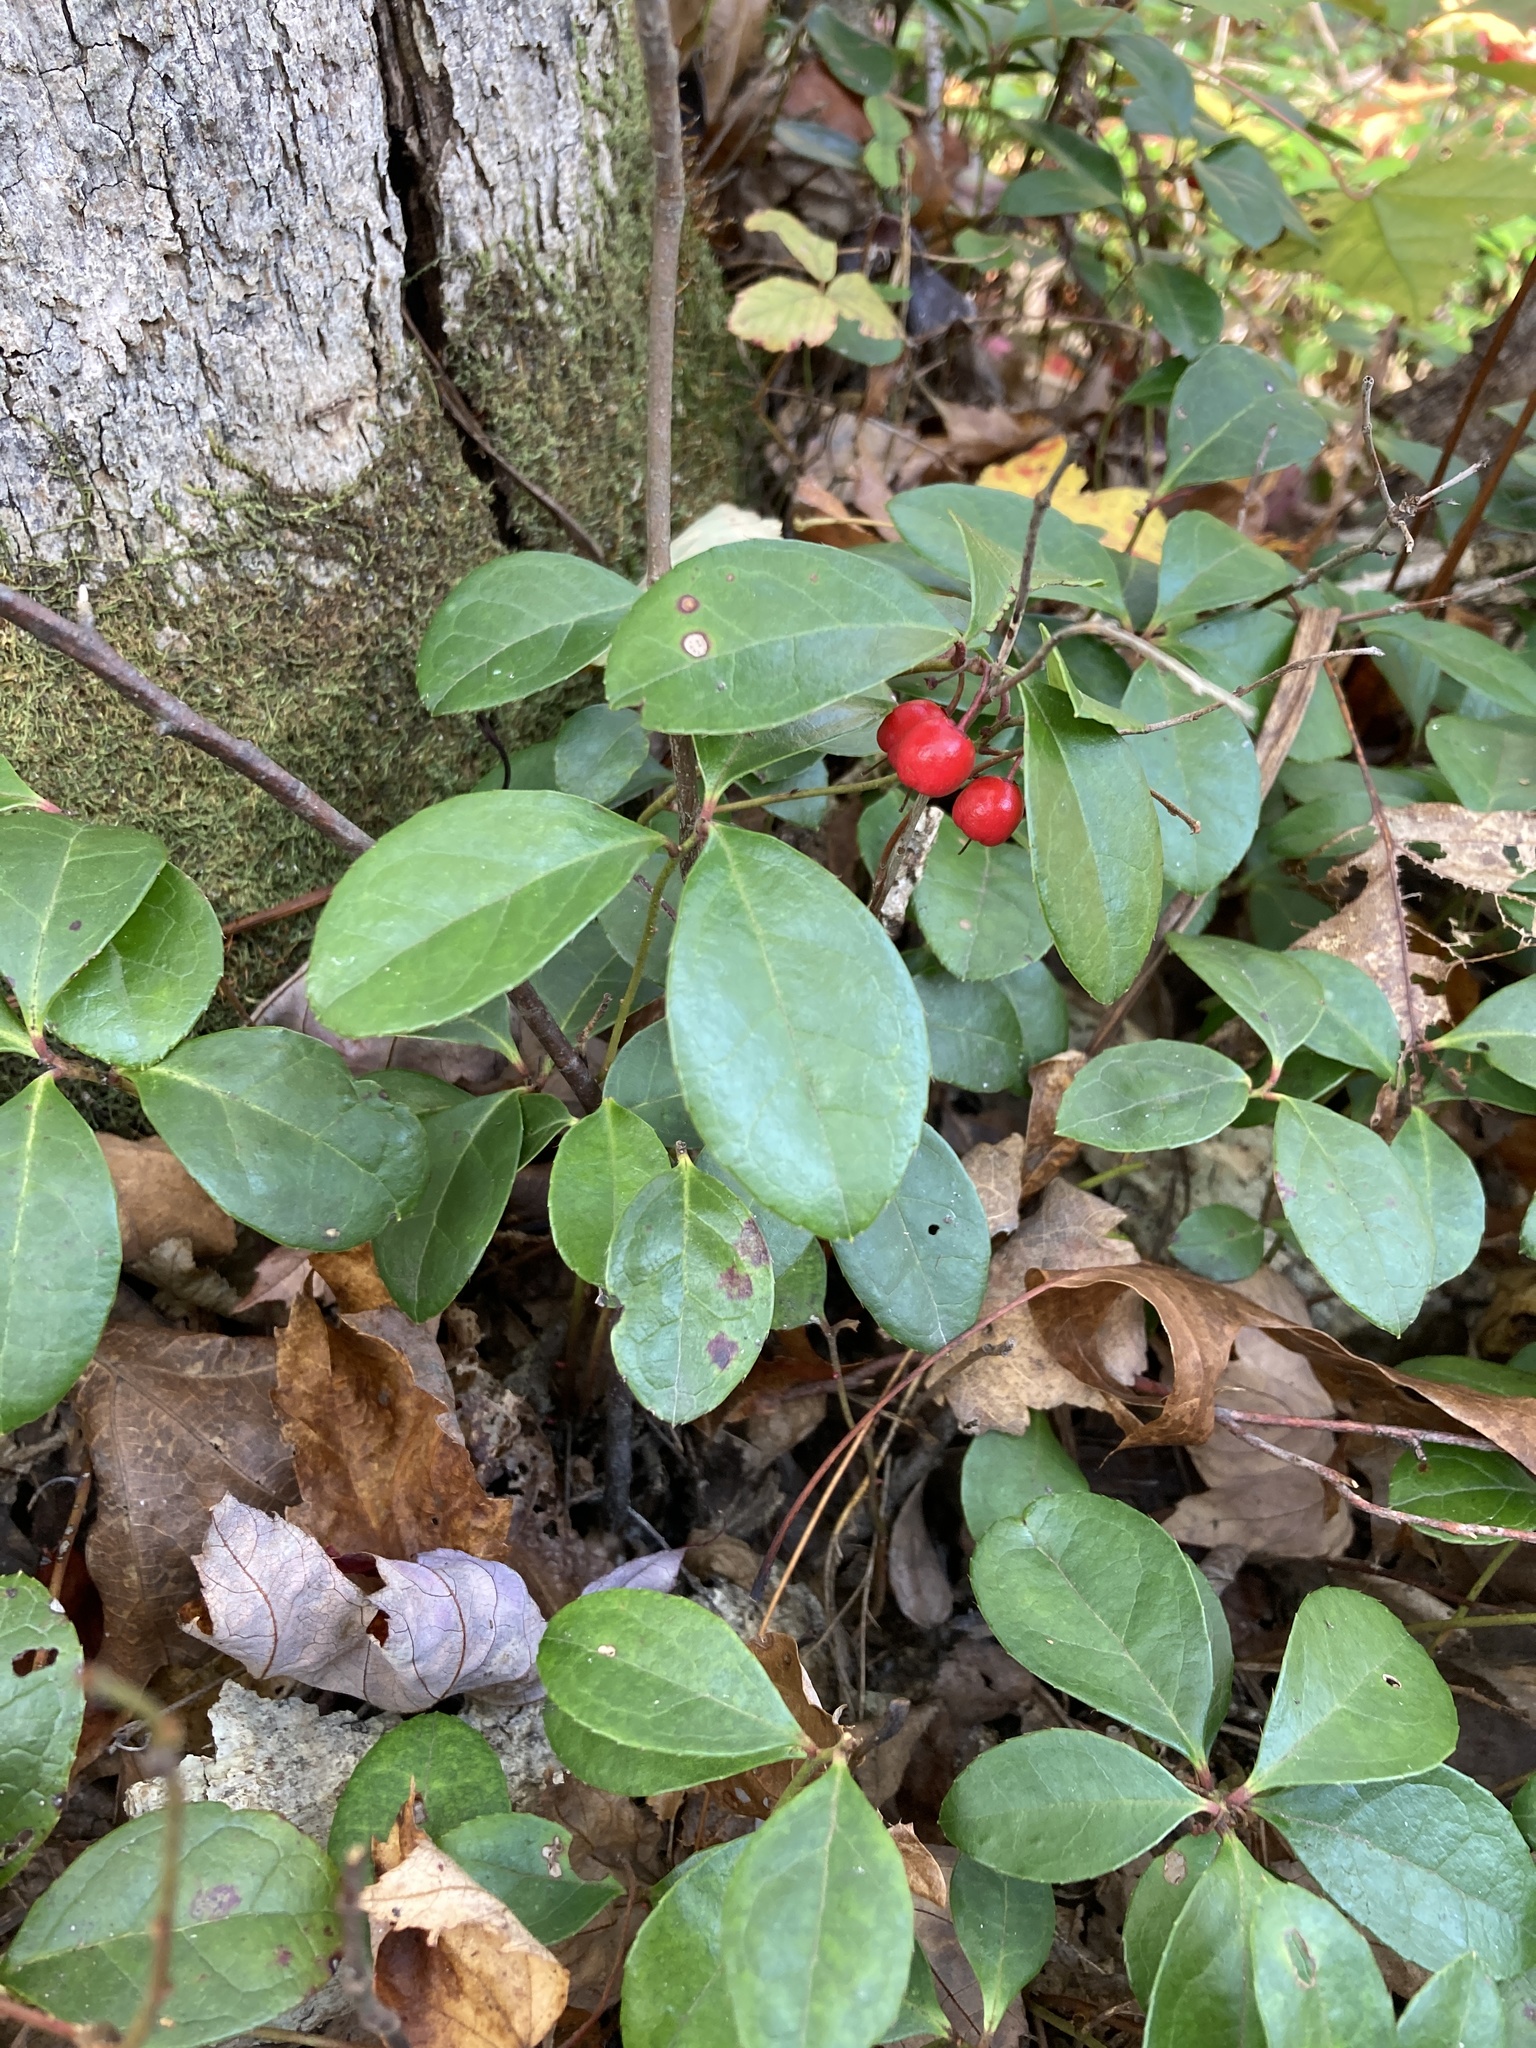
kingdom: Plantae
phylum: Tracheophyta
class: Magnoliopsida
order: Ericales
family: Ericaceae
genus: Gaultheria
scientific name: Gaultheria procumbens
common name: Checkerberry
